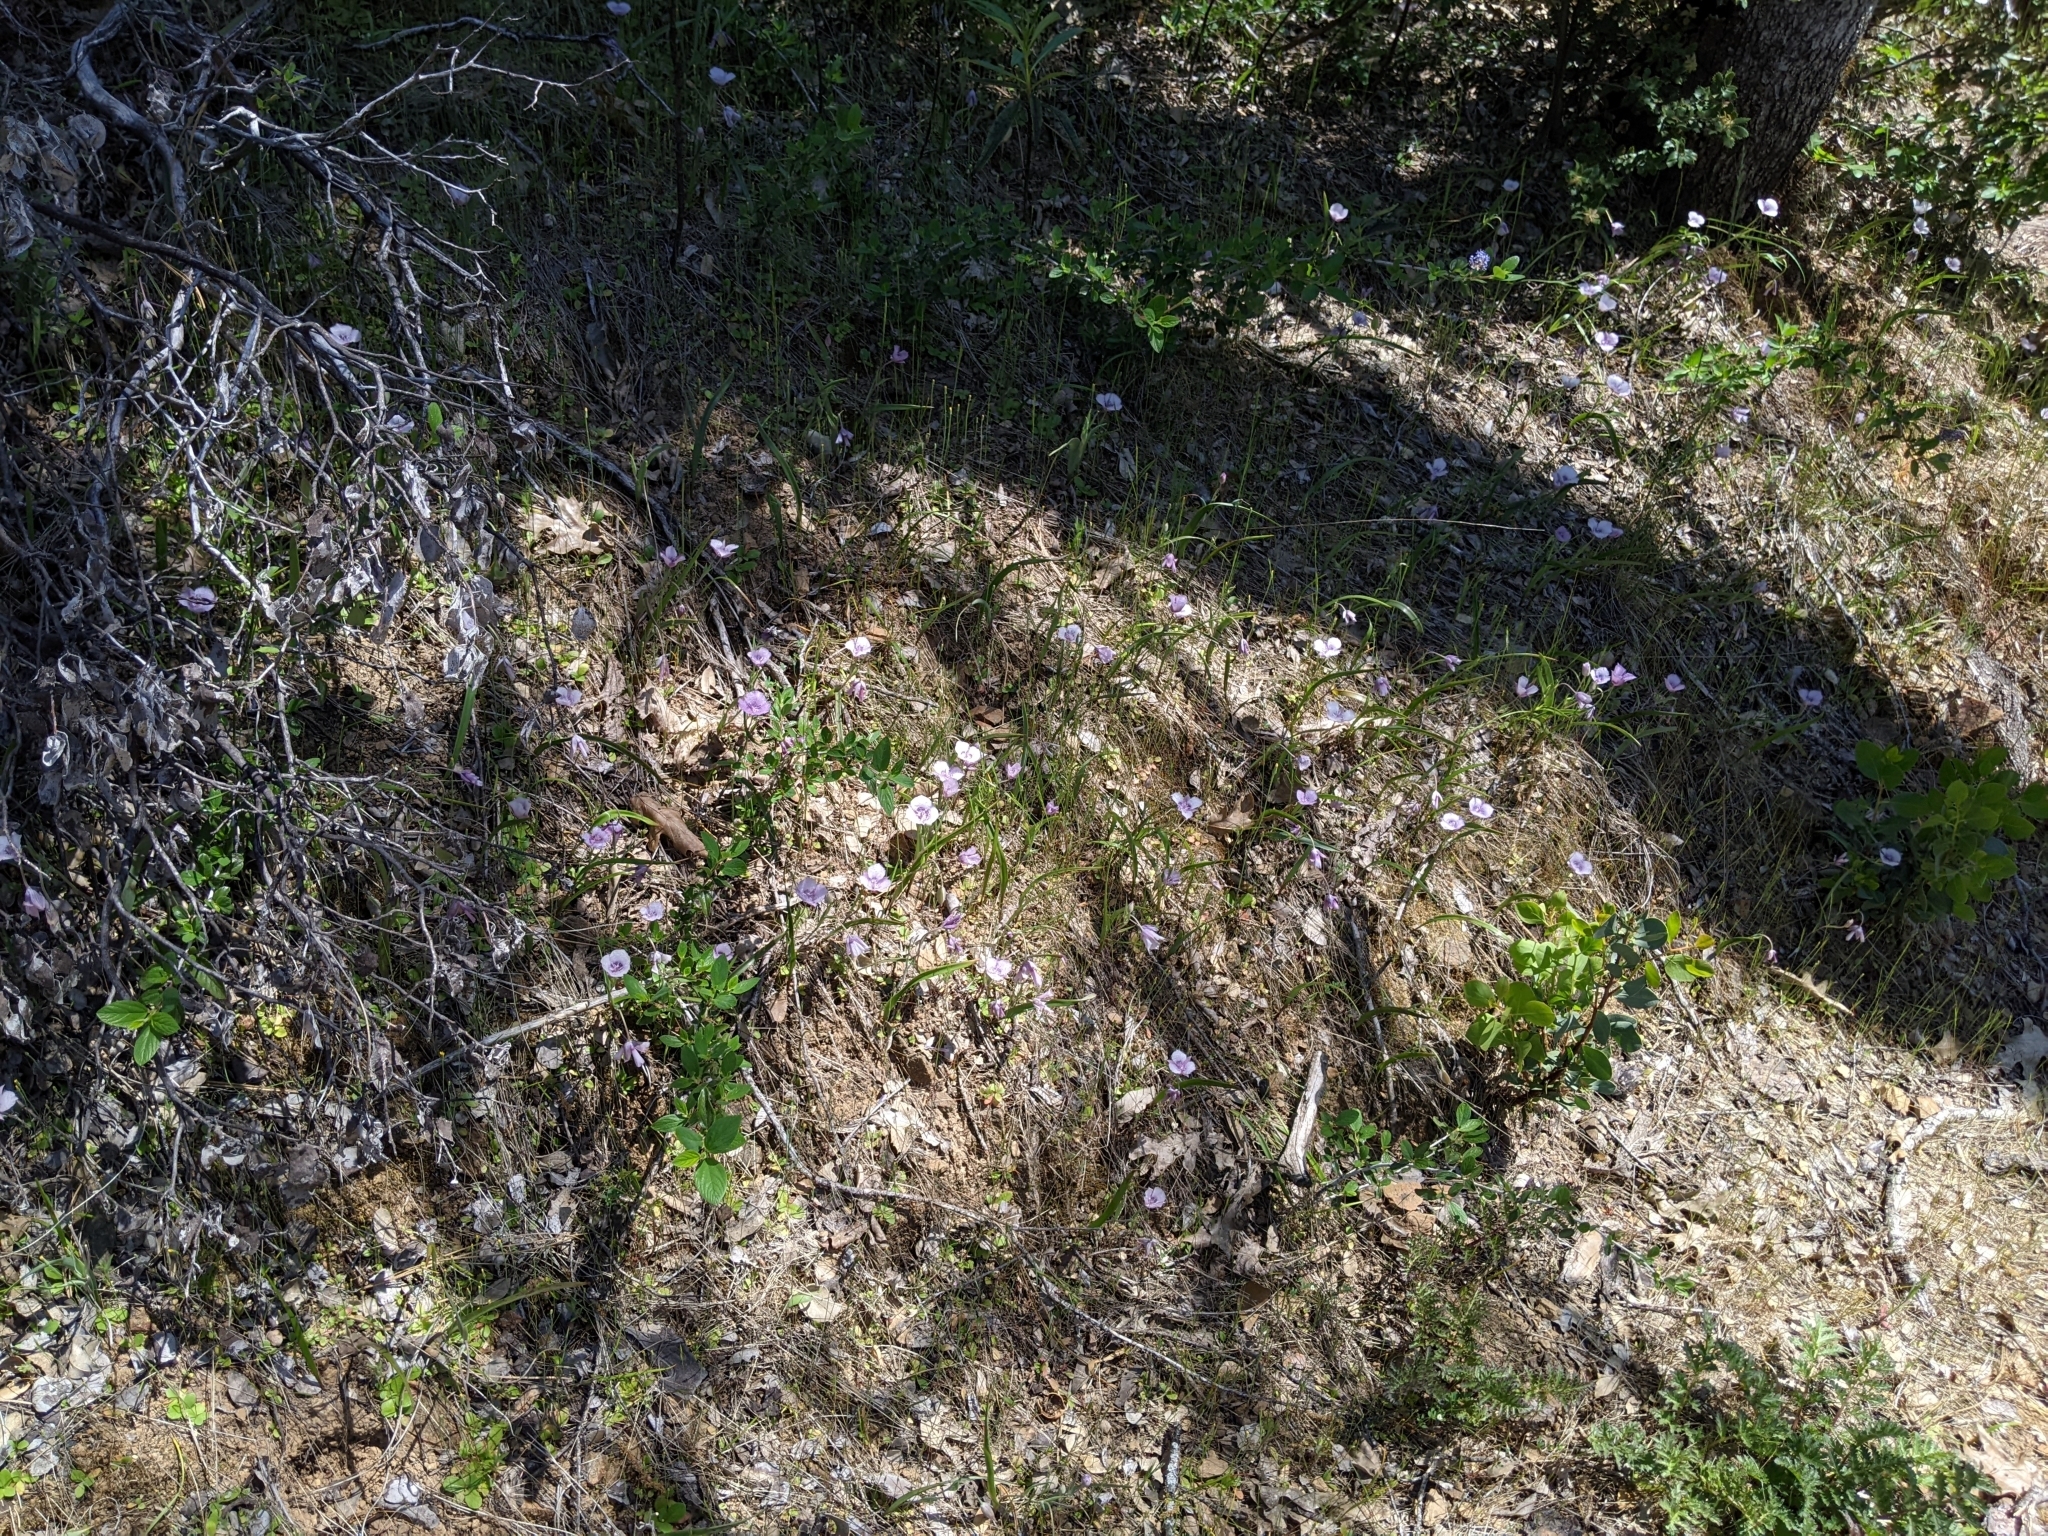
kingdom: Plantae
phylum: Tracheophyta
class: Liliopsida
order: Liliales
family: Liliaceae
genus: Calochortus
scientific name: Calochortus tolmiei
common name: Pussy-ears
